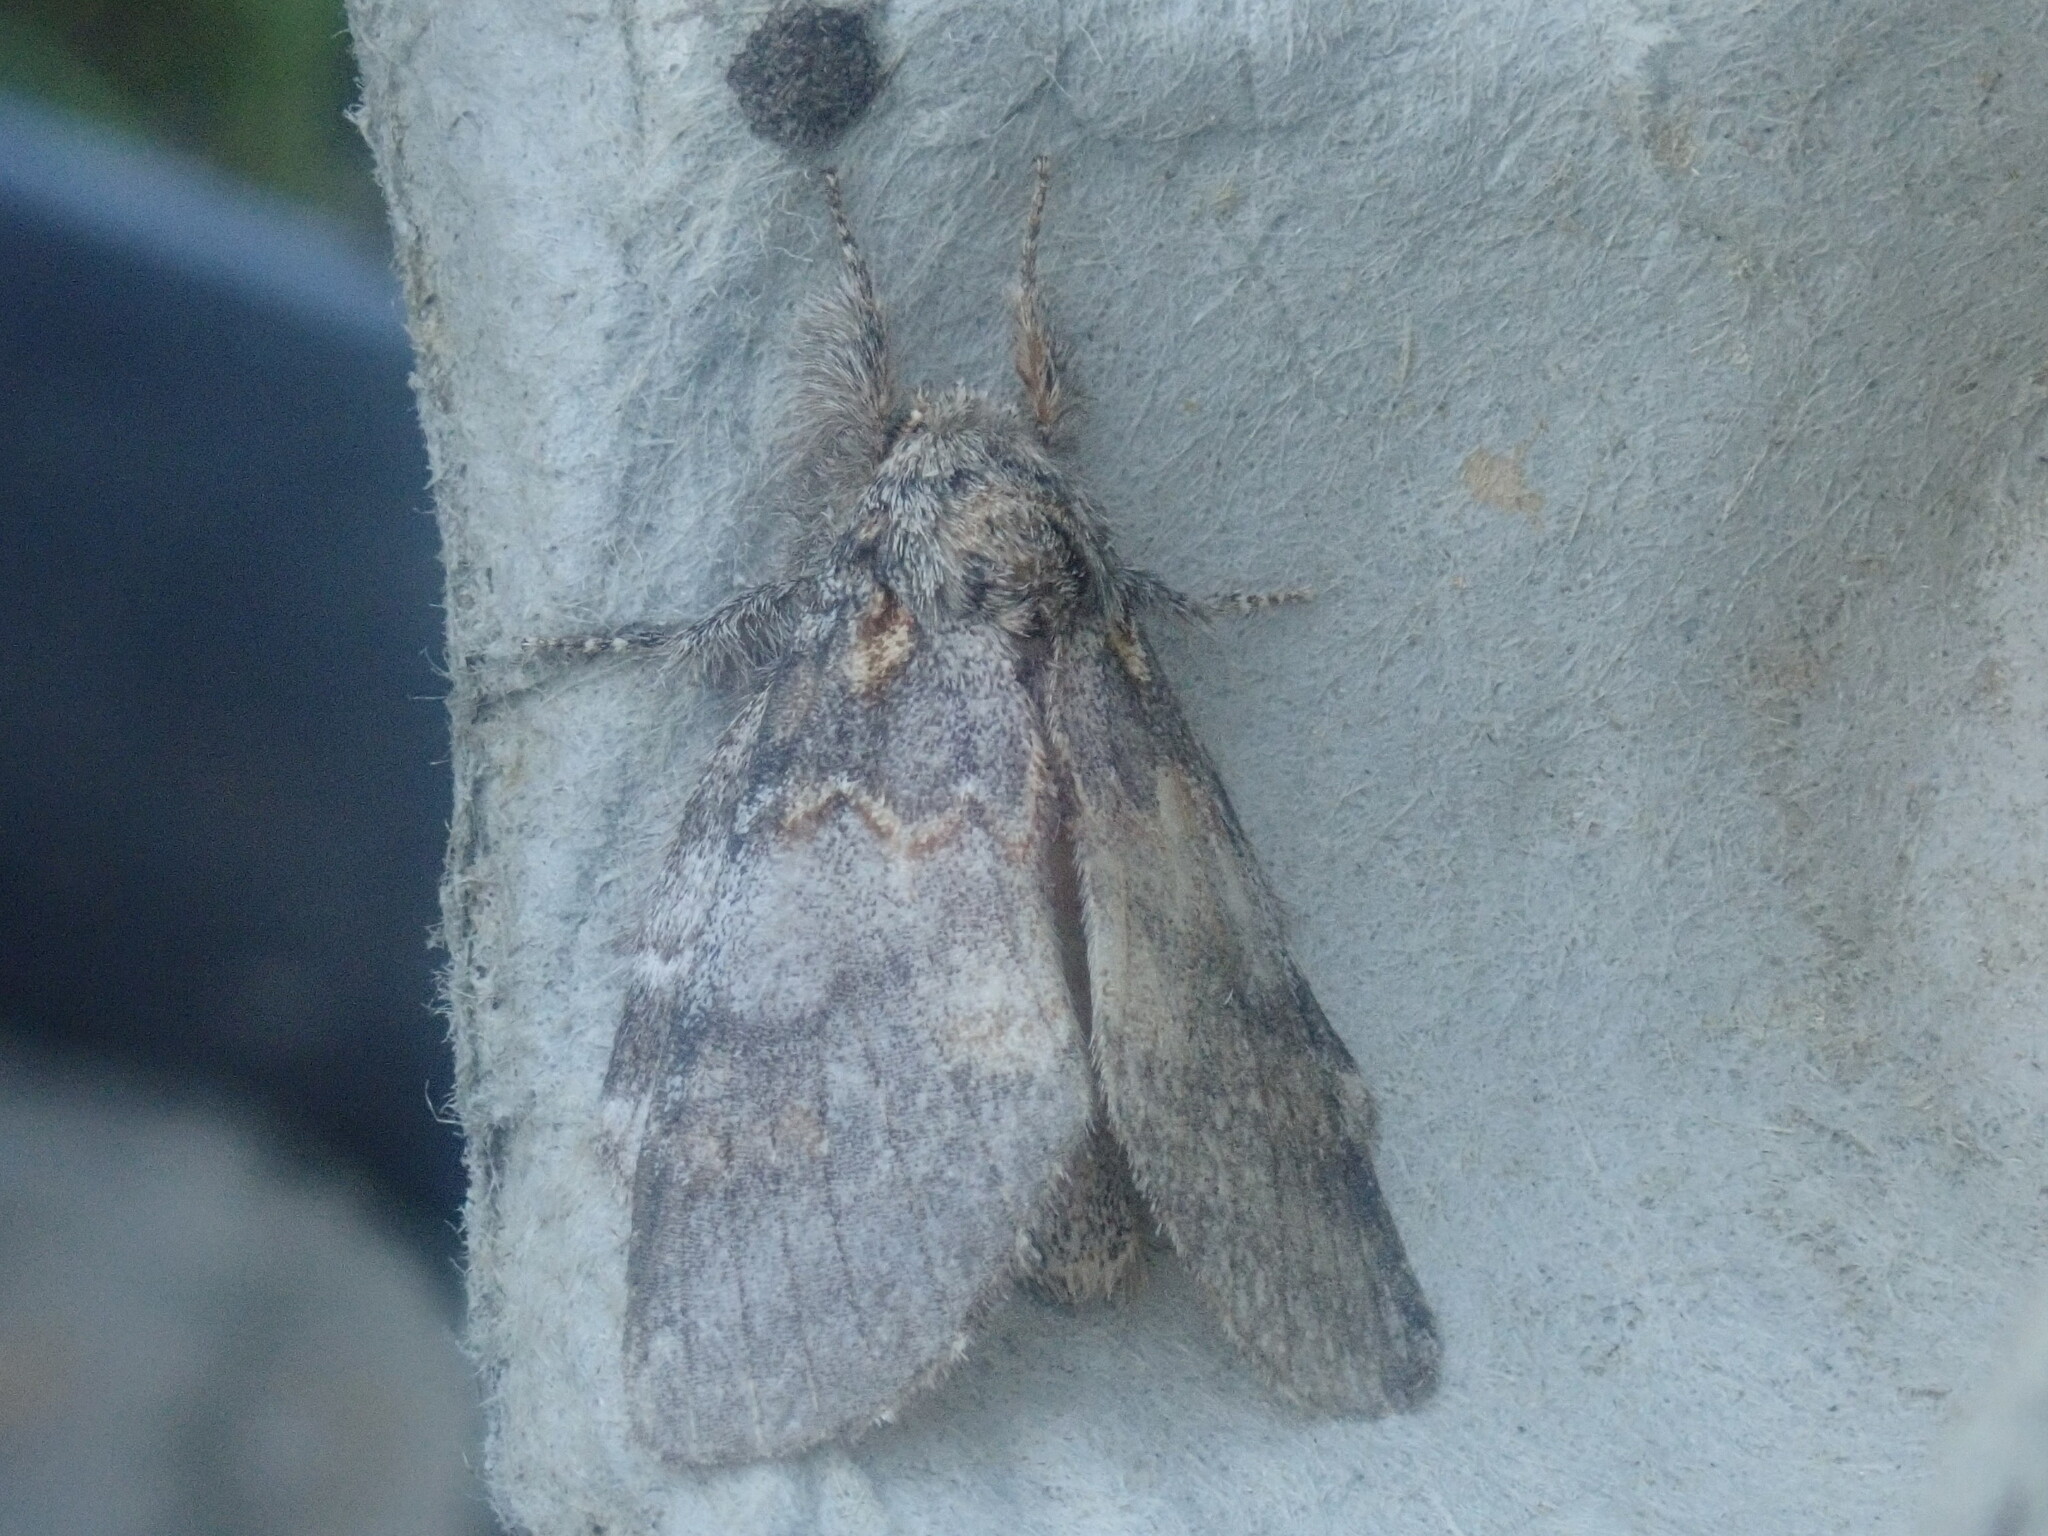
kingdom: Animalia
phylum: Arthropoda
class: Insecta
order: Lepidoptera
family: Notodontidae
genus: Peridea
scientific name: Peridea angulosa
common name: Angulose prominent
